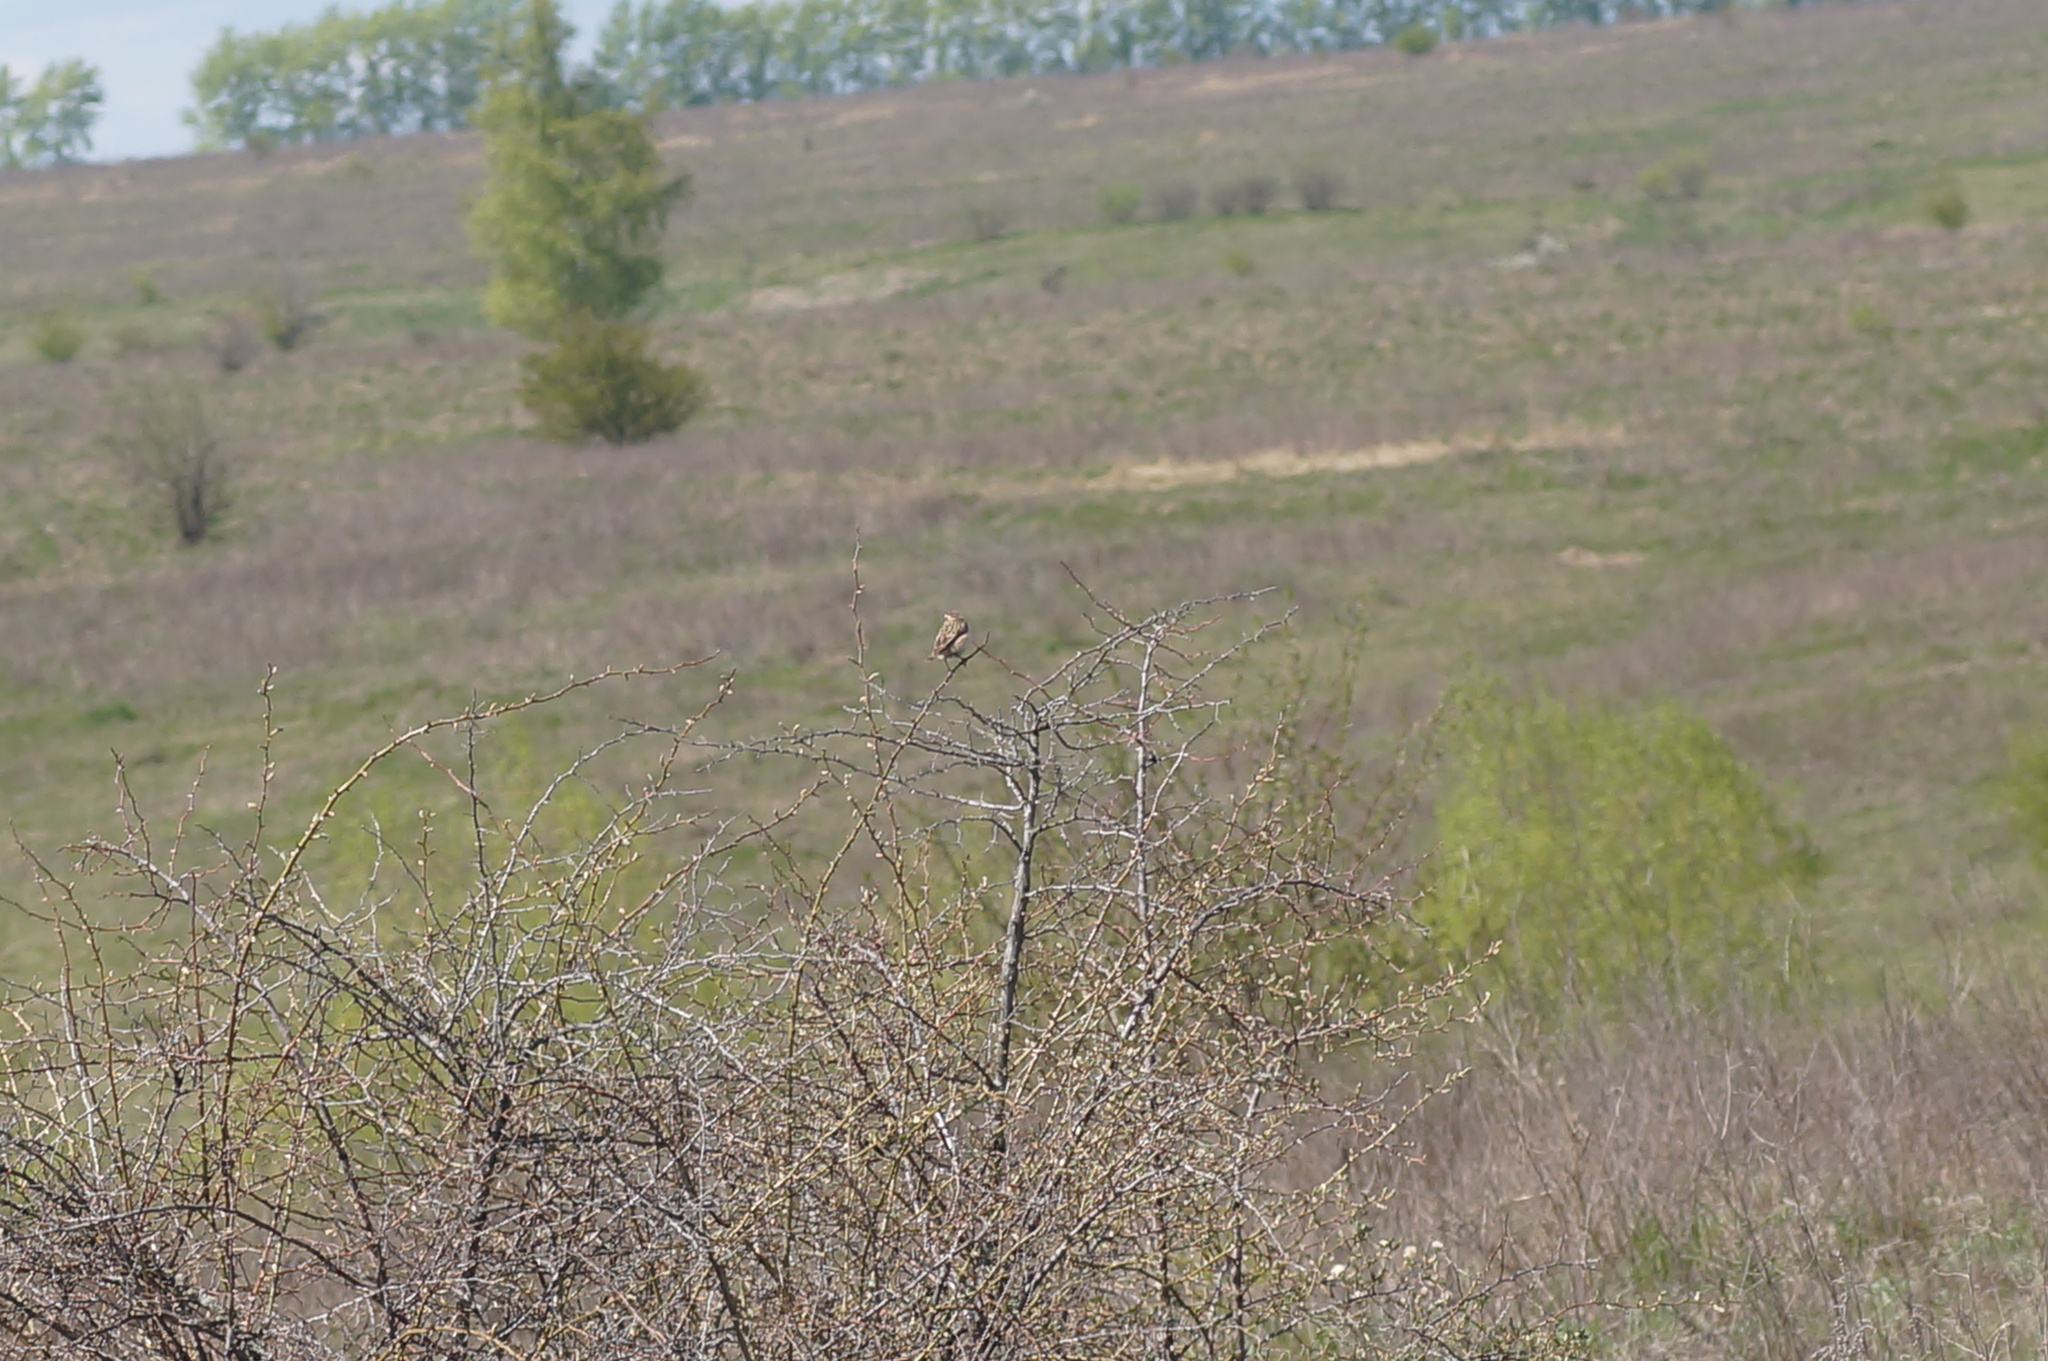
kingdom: Animalia
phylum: Chordata
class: Aves
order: Passeriformes
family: Muscicapidae
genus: Saxicola
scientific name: Saxicola rubetra
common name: Whinchat
